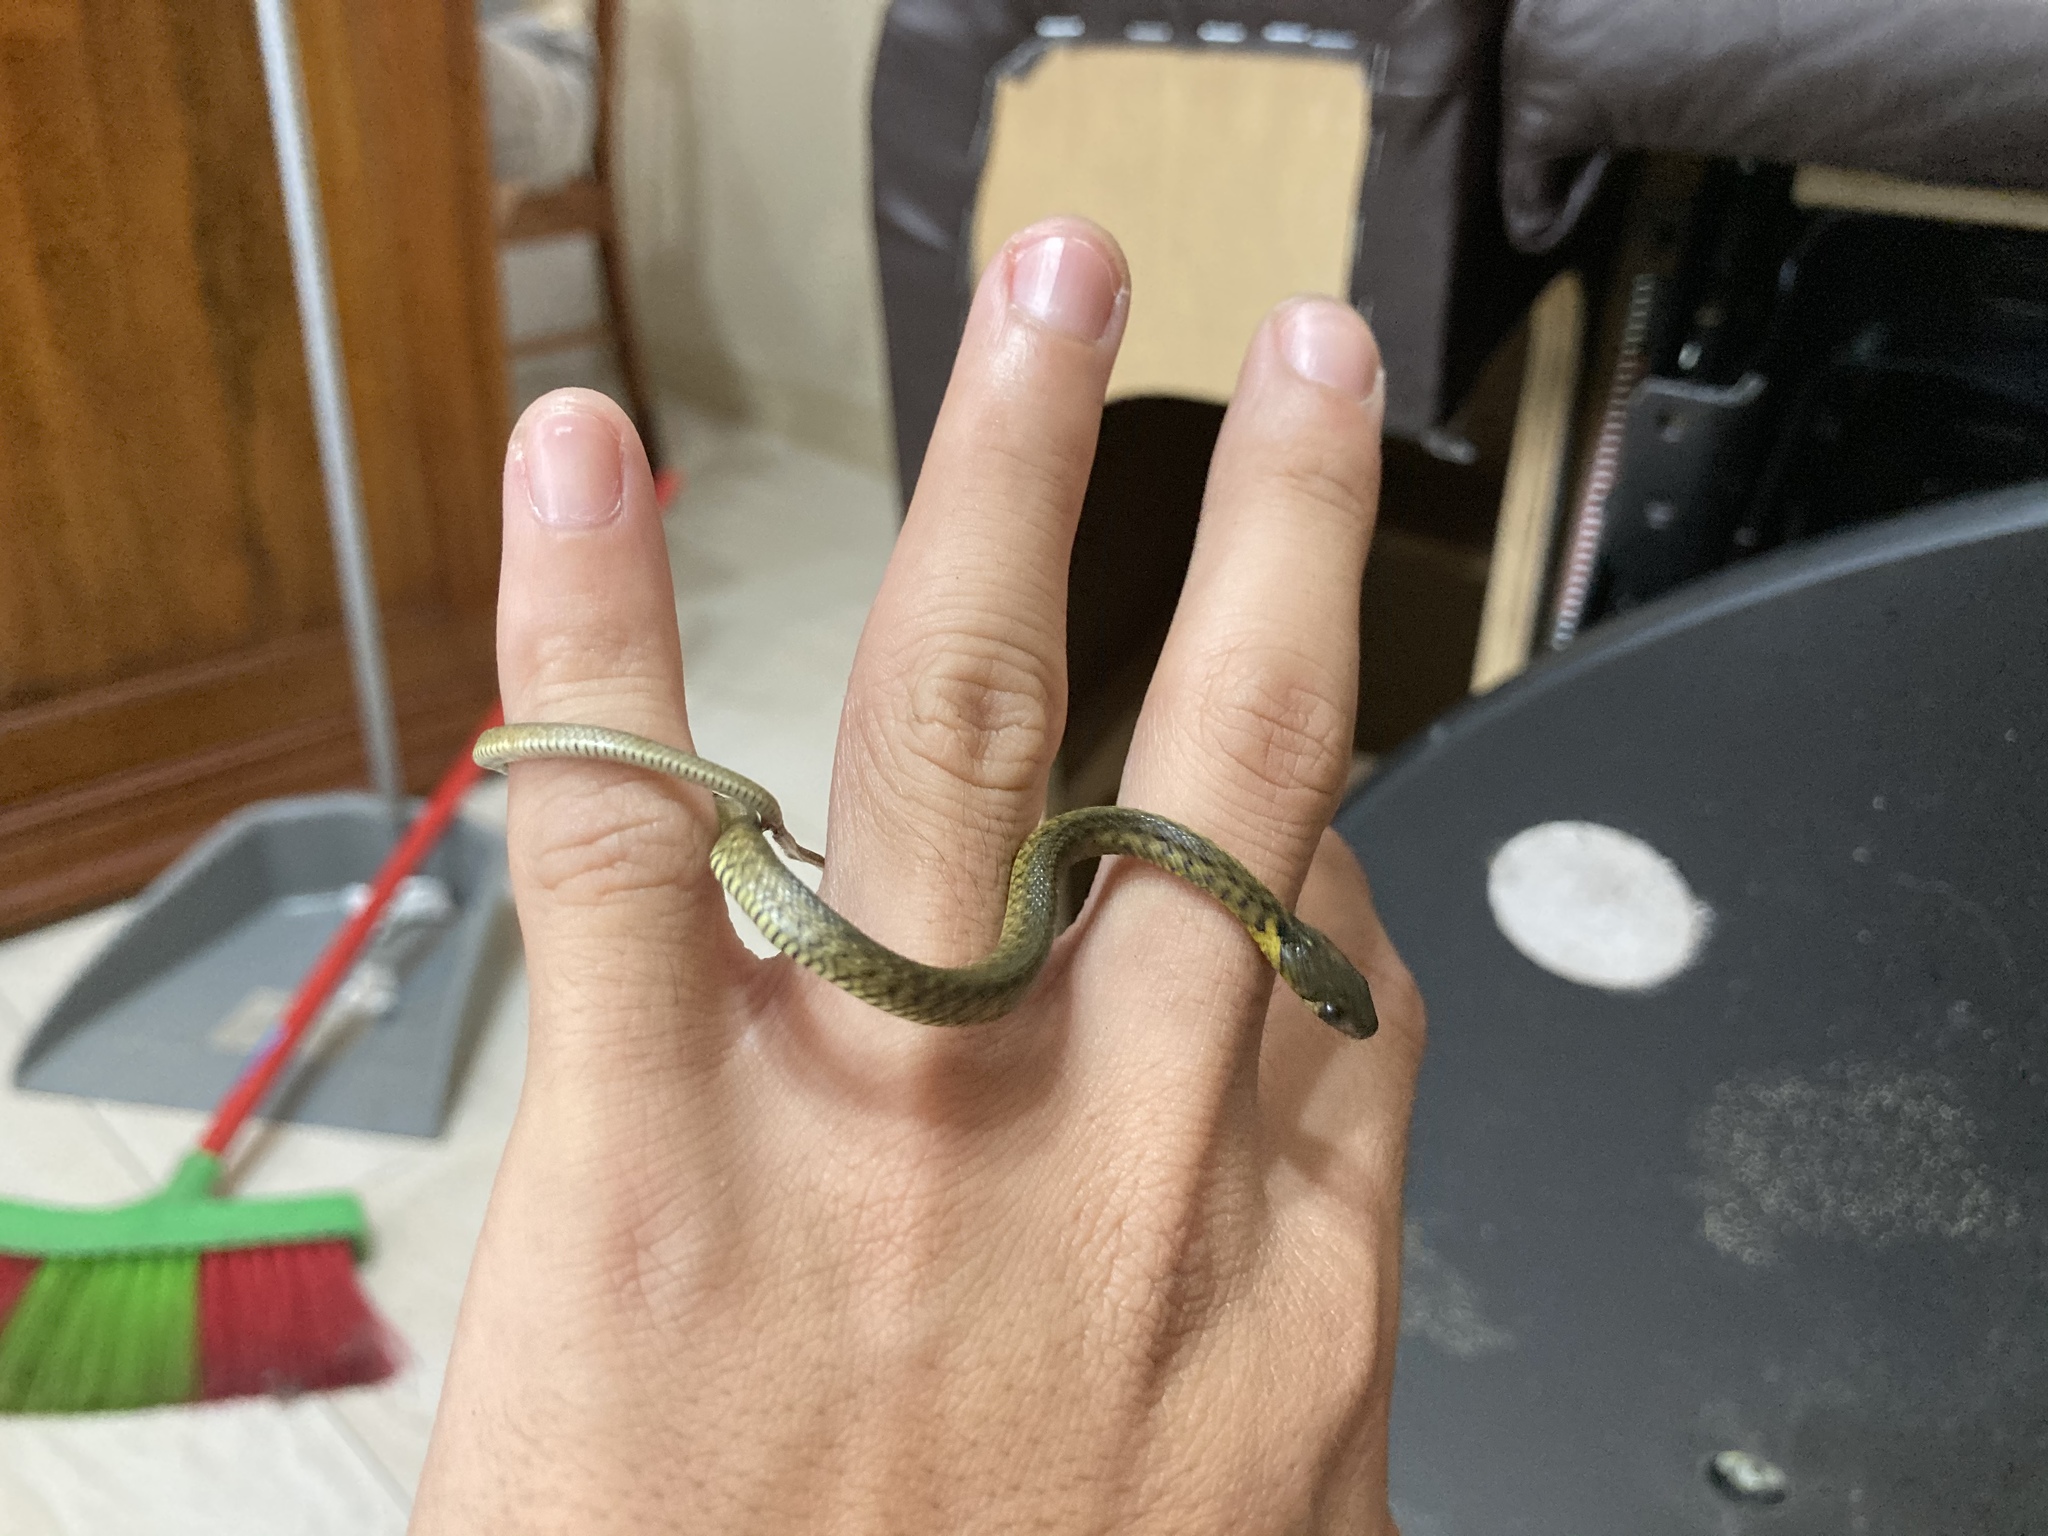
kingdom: Animalia
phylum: Chordata
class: Squamata
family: Colubridae
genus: Fowlea
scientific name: Fowlea flavipunctatus
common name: Yellow-spotted keelback
